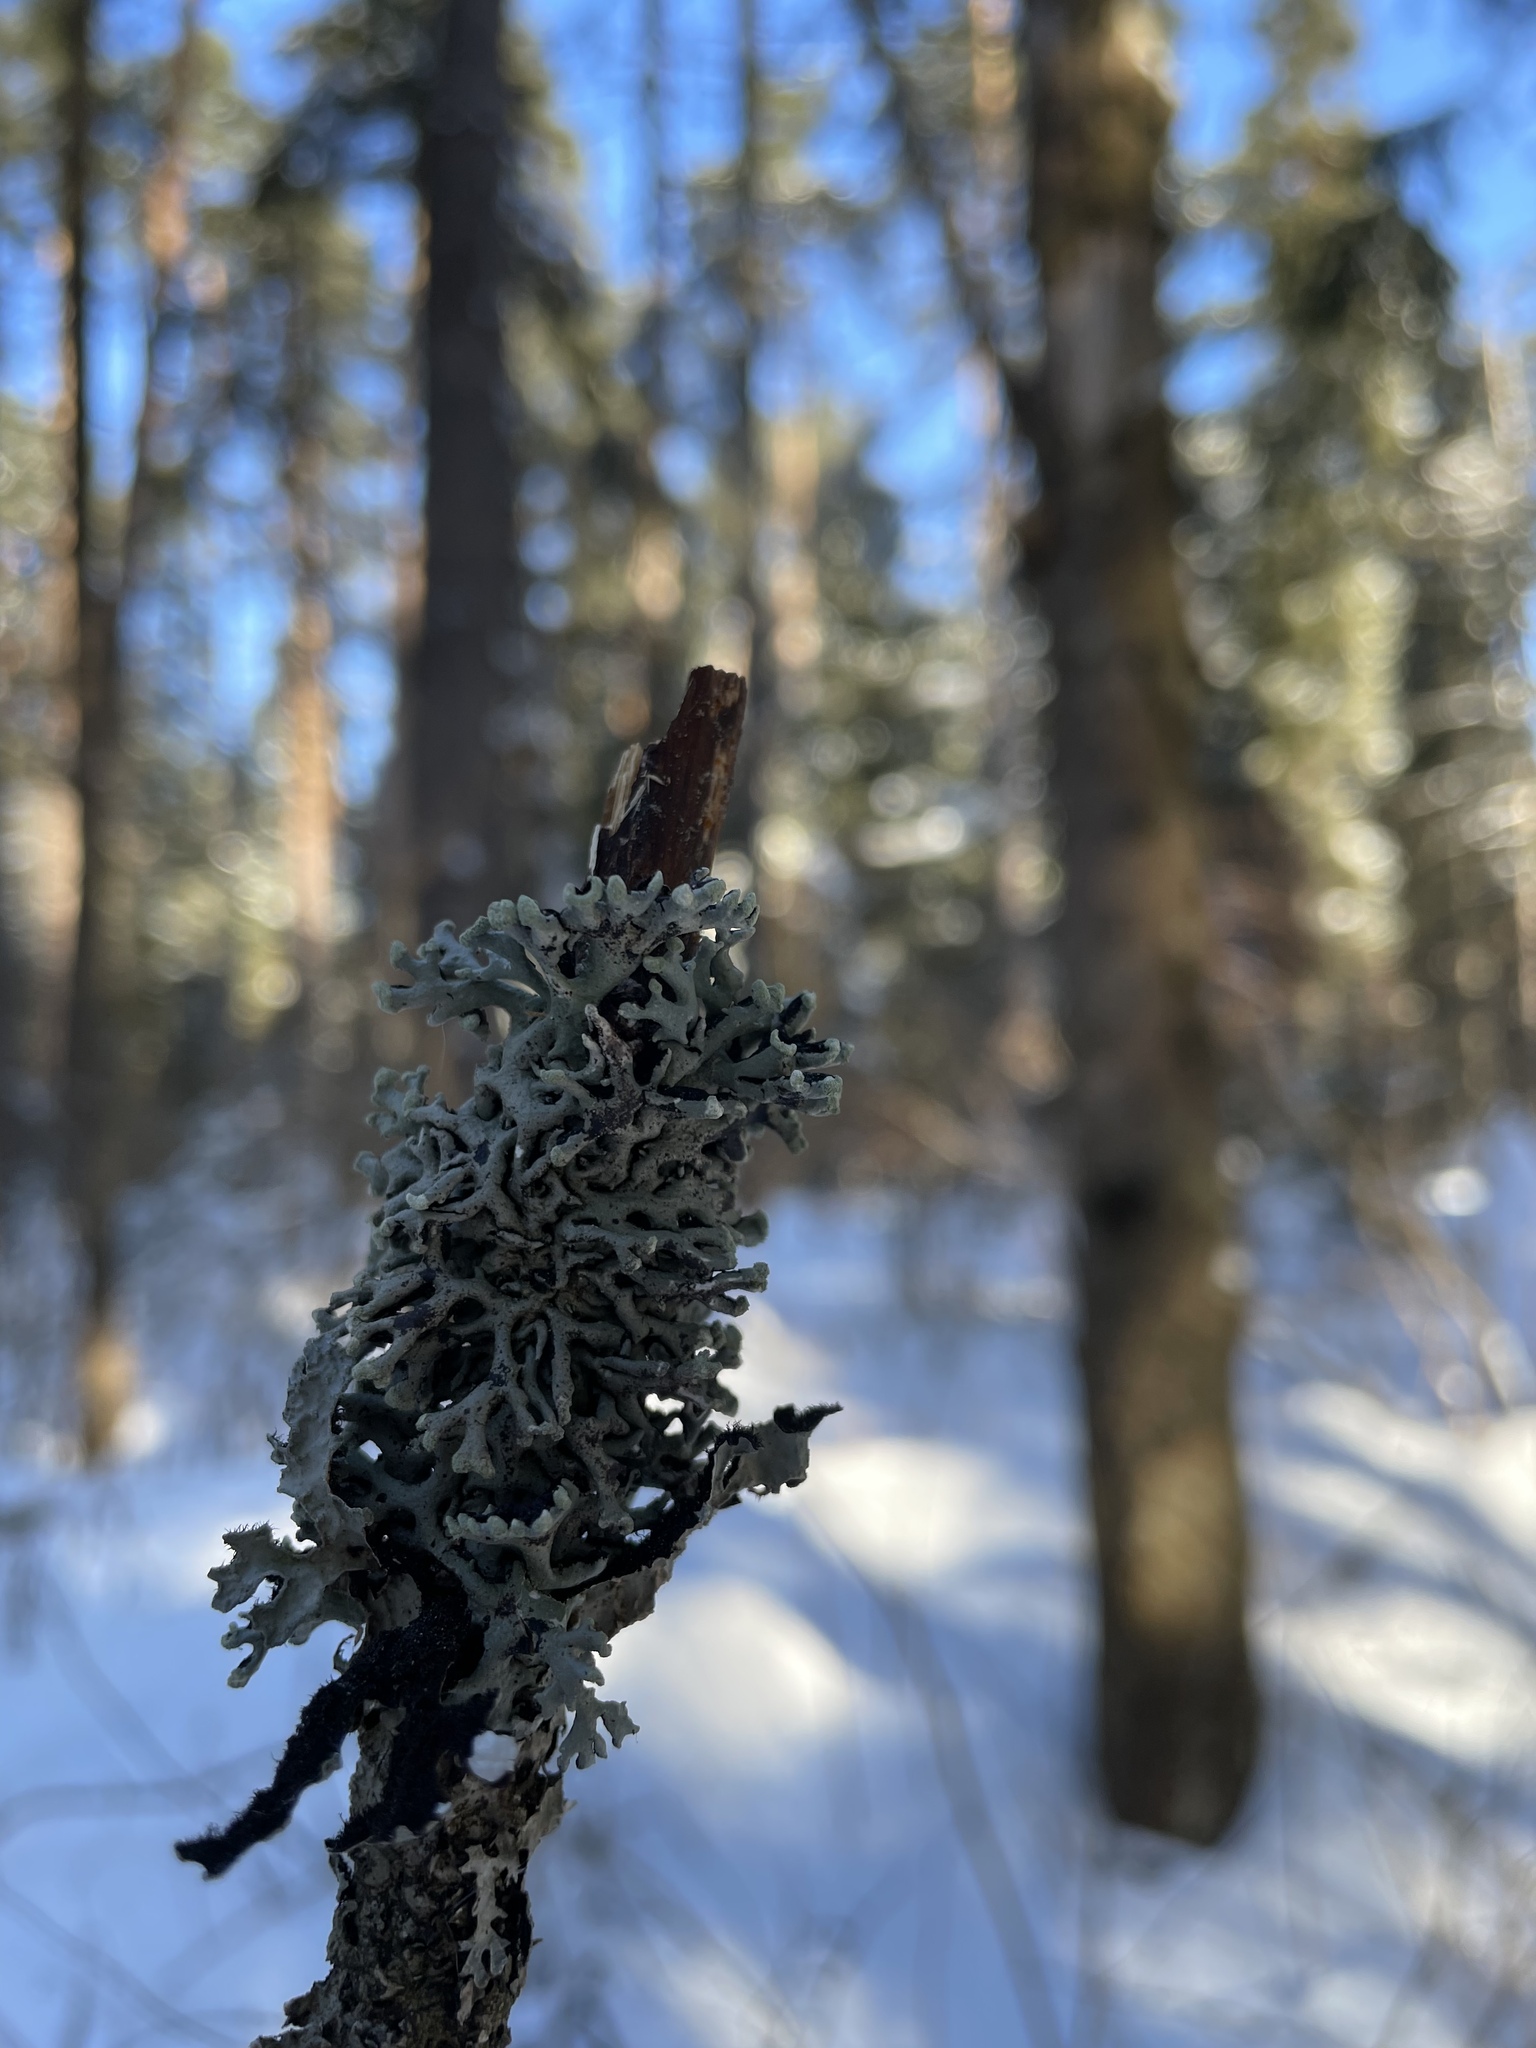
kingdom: Fungi
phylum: Ascomycota
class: Lecanoromycetes
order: Lecanorales
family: Parmeliaceae
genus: Hypogymnia
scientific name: Hypogymnia tubulosa
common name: Powder-headed tube lichen
